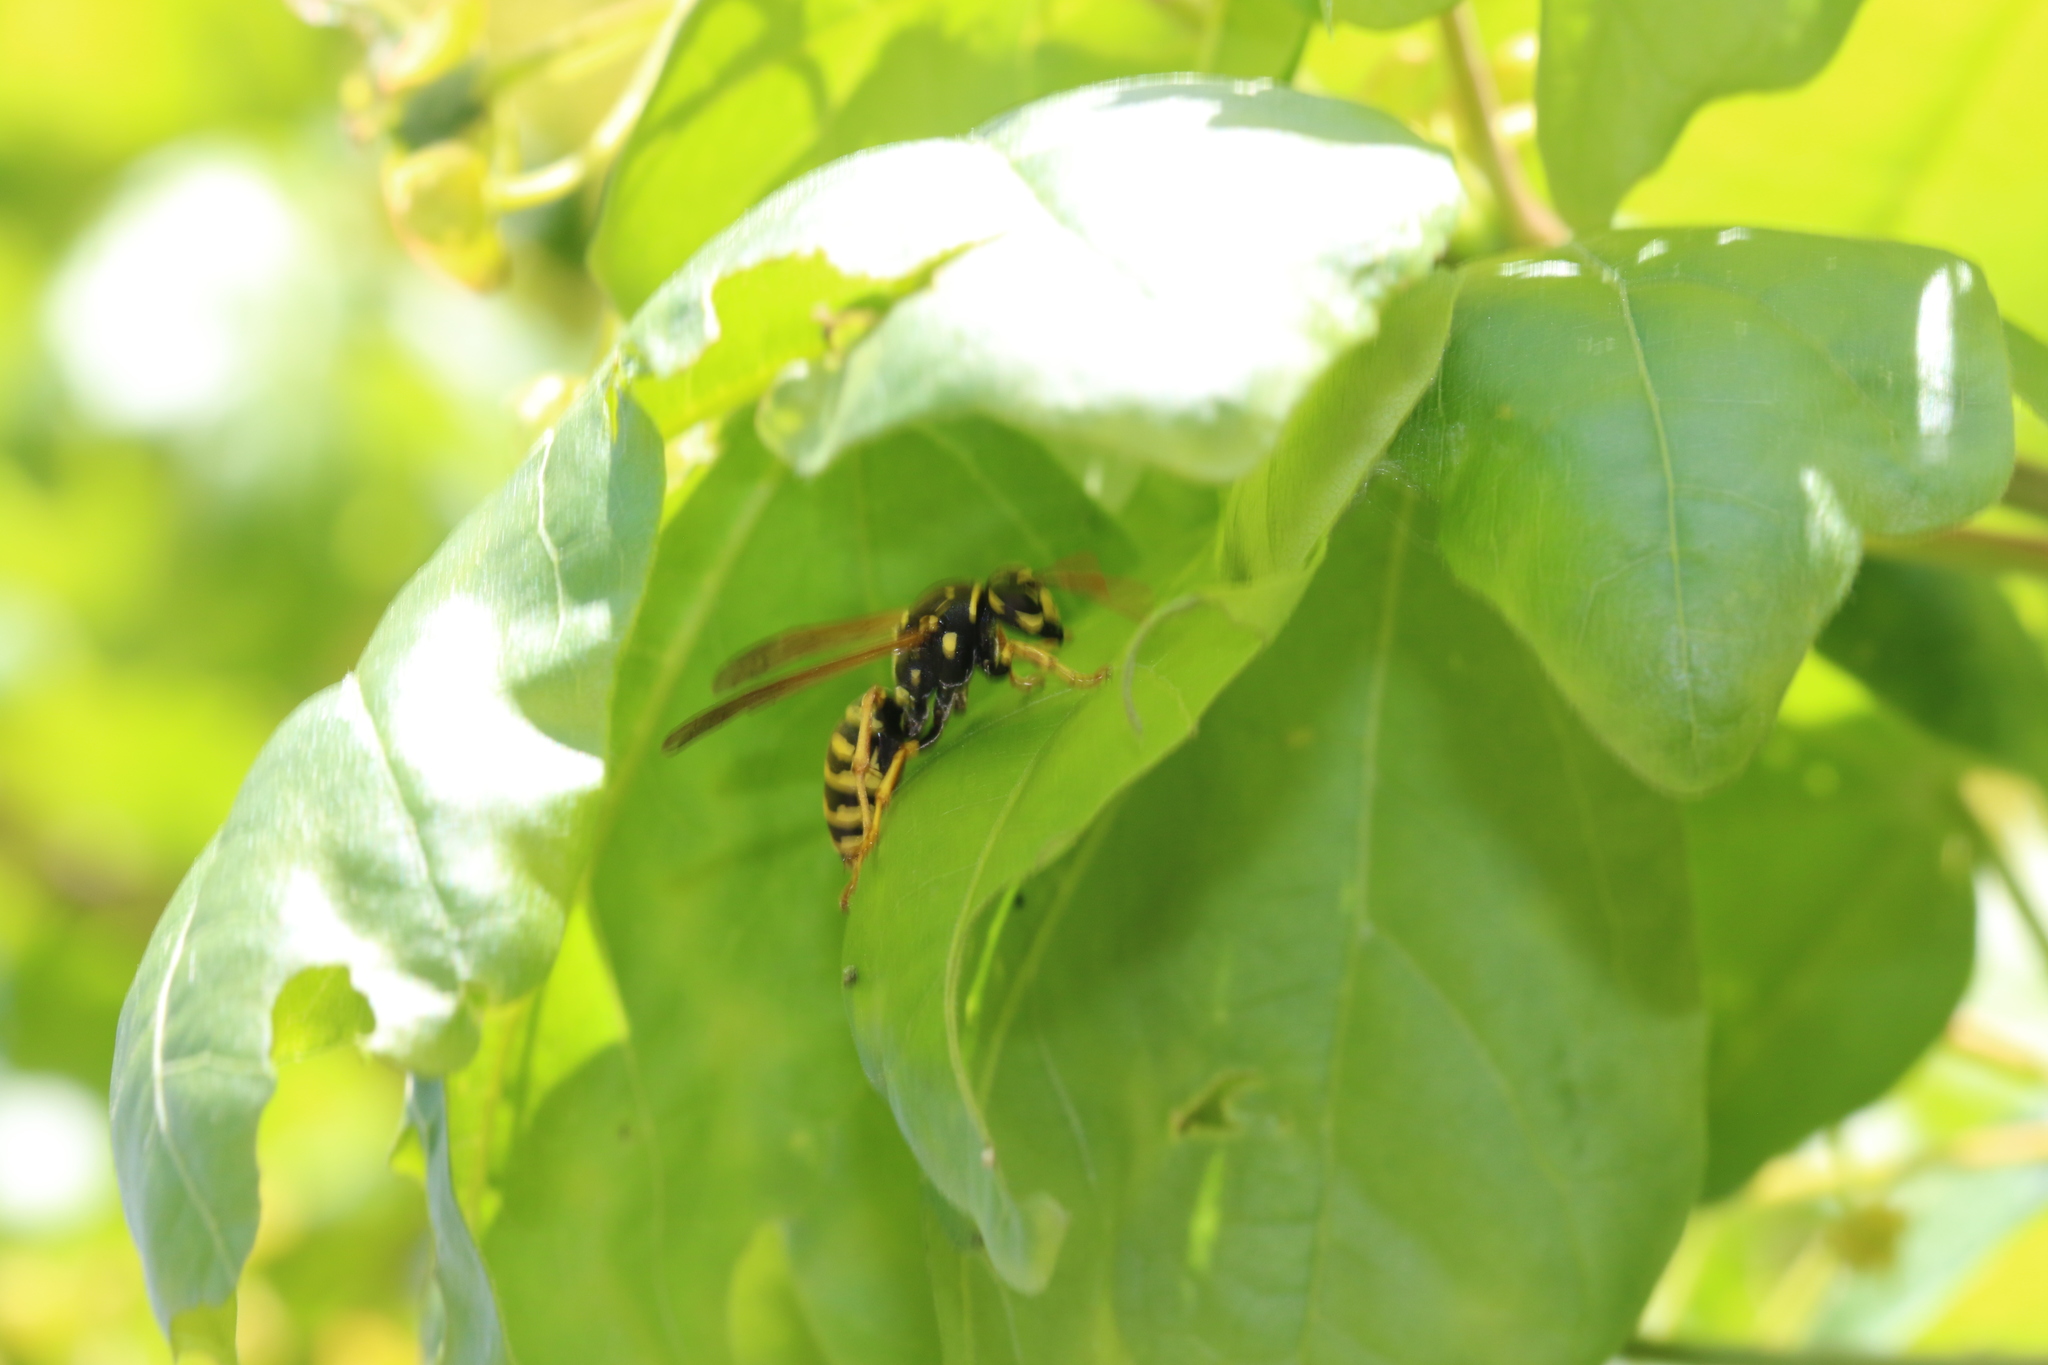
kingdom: Animalia
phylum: Arthropoda
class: Insecta
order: Hymenoptera
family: Eumenidae
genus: Polistes
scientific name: Polistes dominula
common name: Paper wasp
